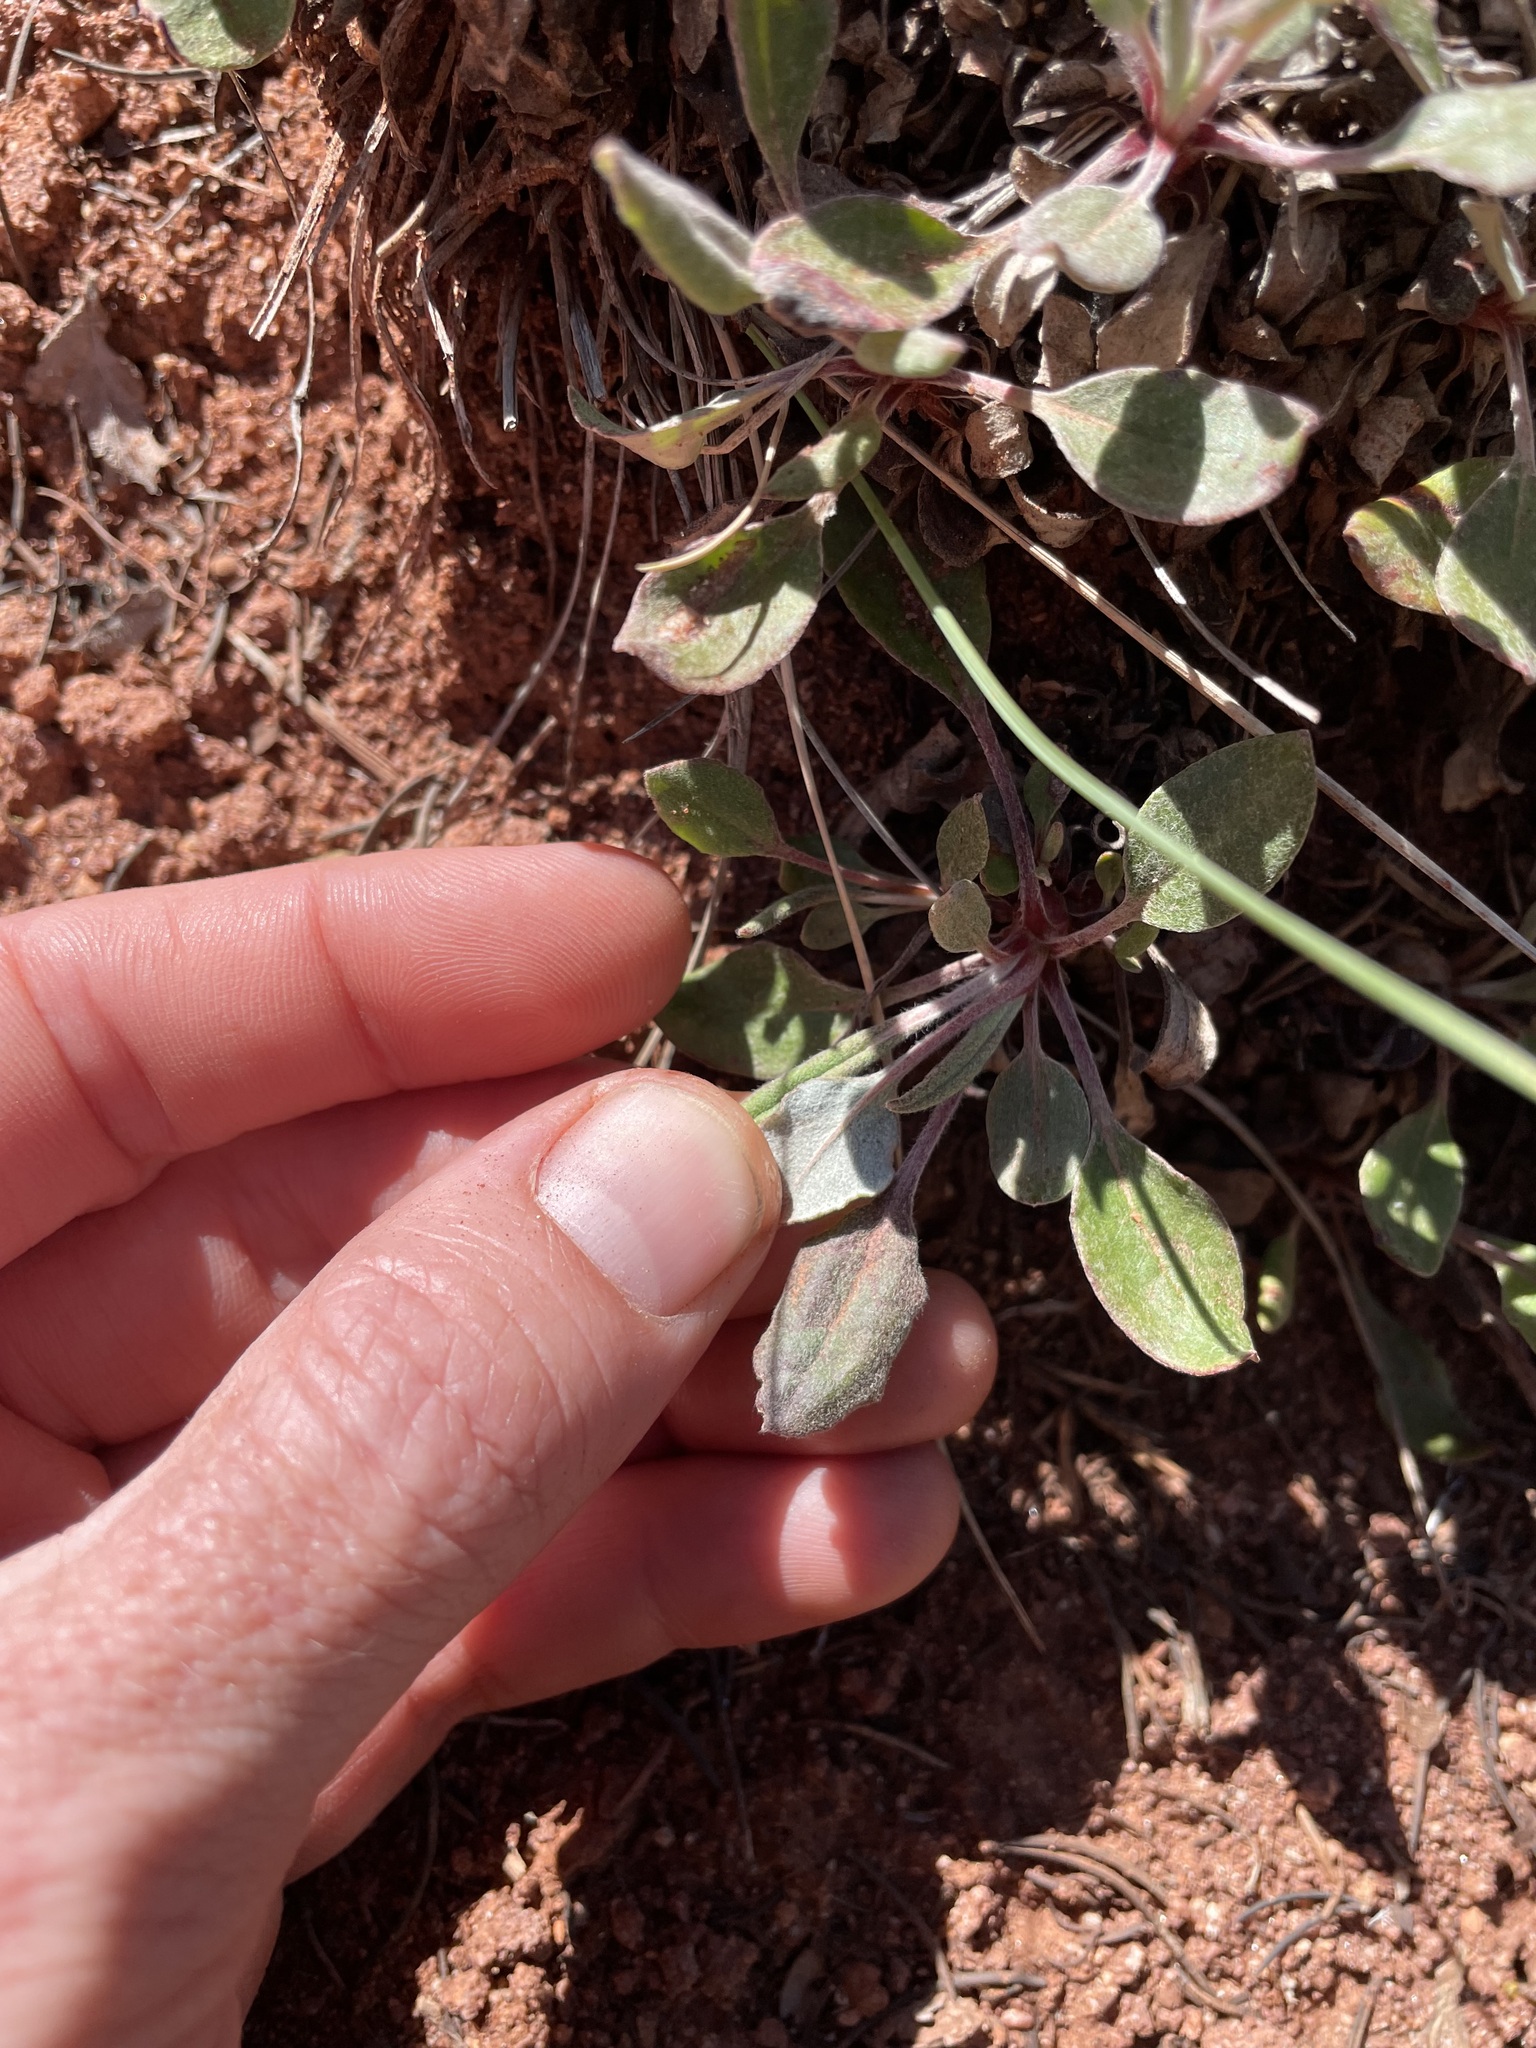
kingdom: Plantae
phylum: Tracheophyta
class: Magnoliopsida
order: Caryophyllales
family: Polygonaceae
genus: Eriogonum
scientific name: Eriogonum jamesii
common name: Antelope-sage
